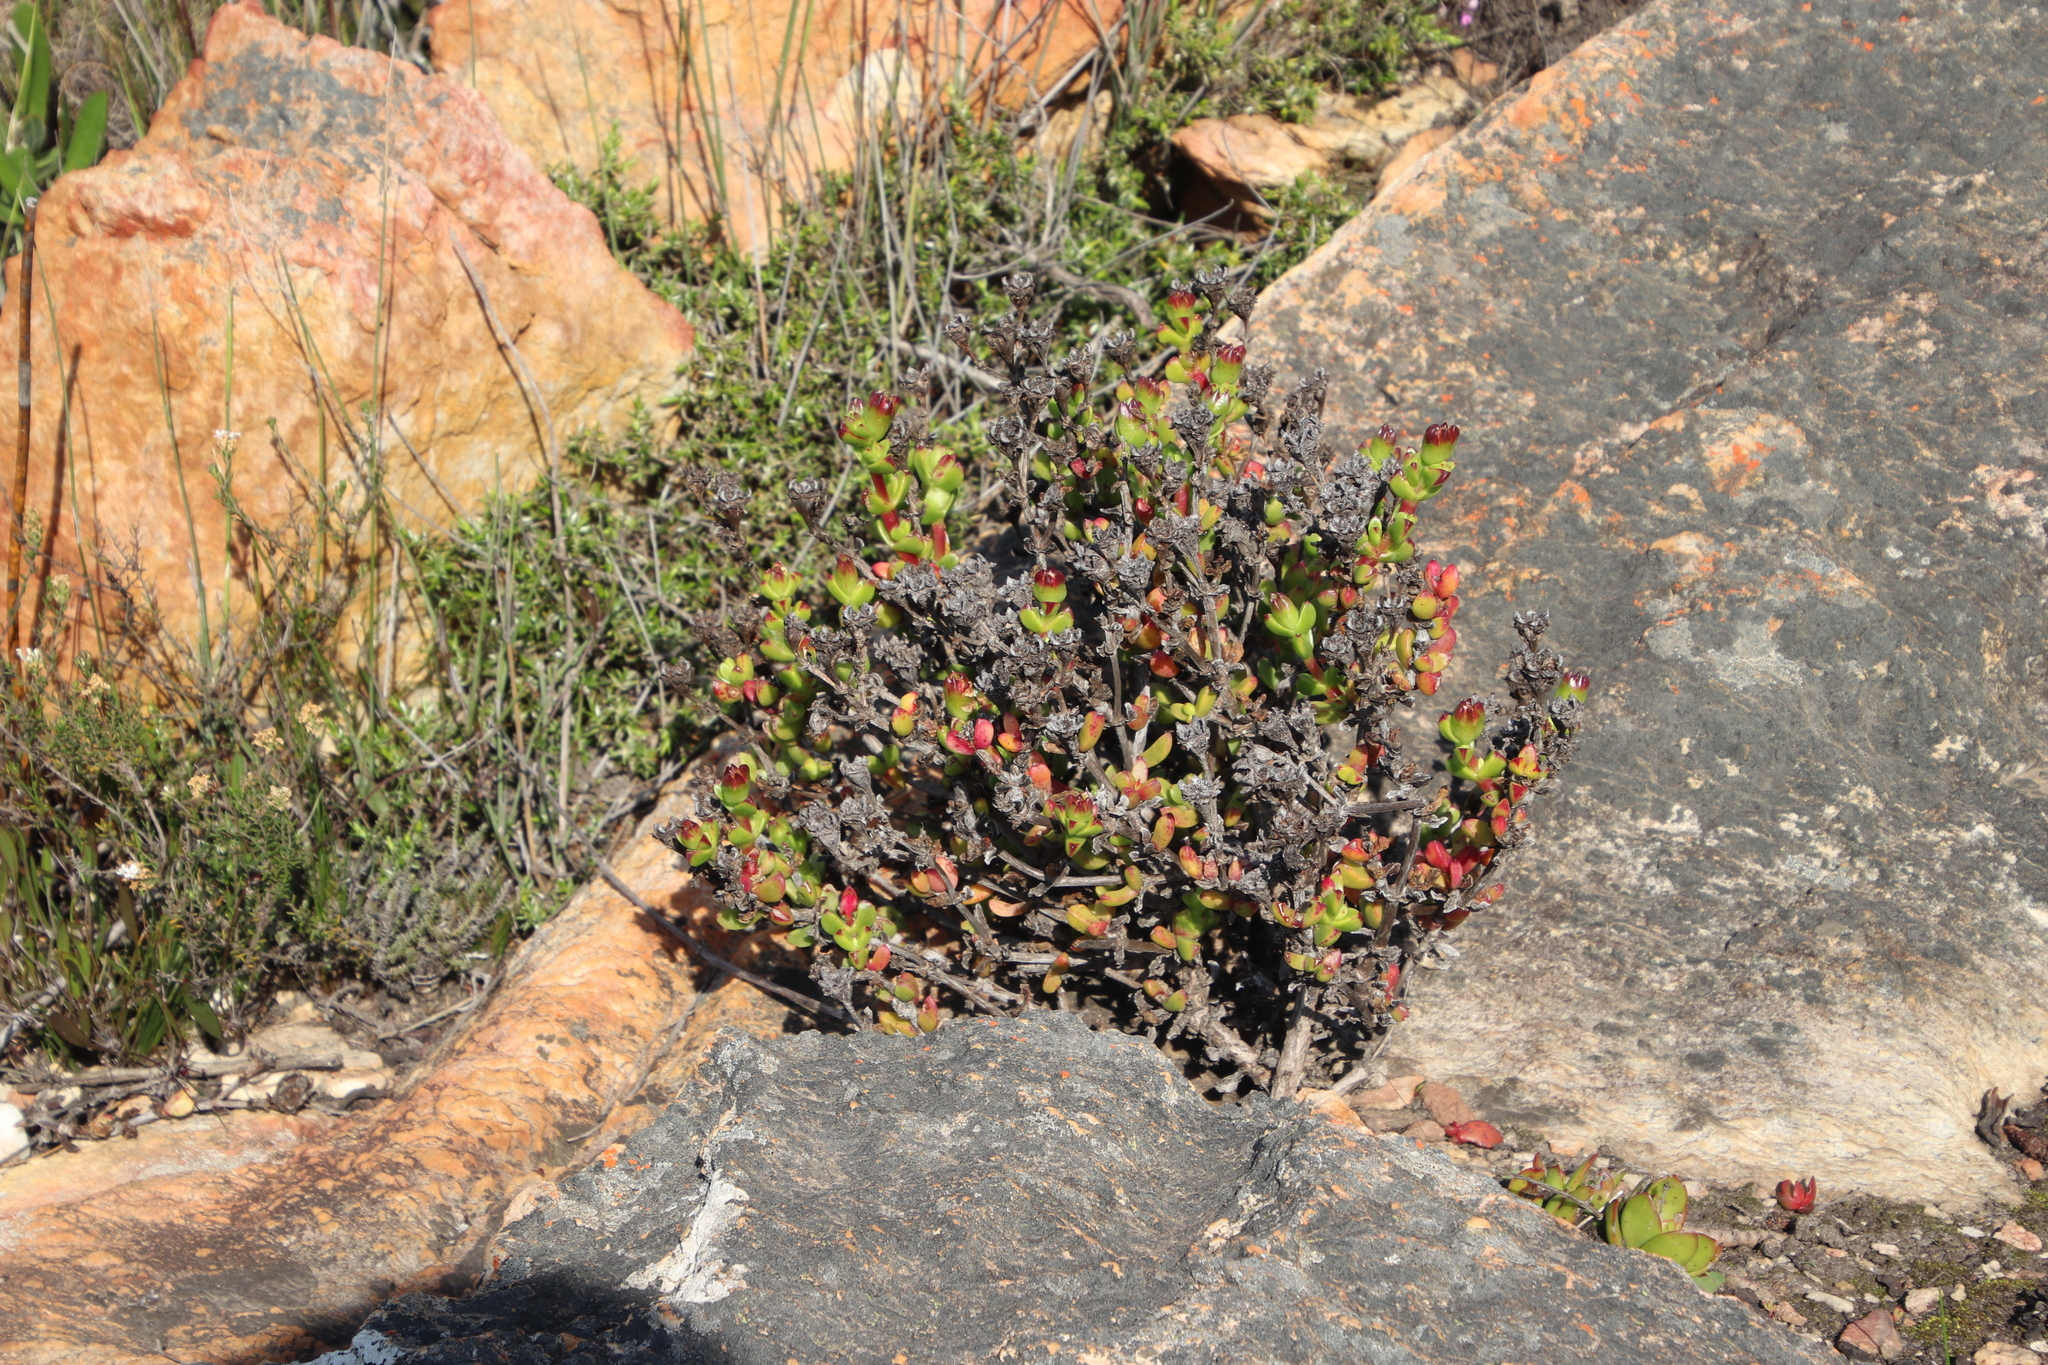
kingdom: Plantae
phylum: Tracheophyta
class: Magnoliopsida
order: Caryophyllales
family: Aizoaceae
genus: Erepsia
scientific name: Erepsia inclaudens
